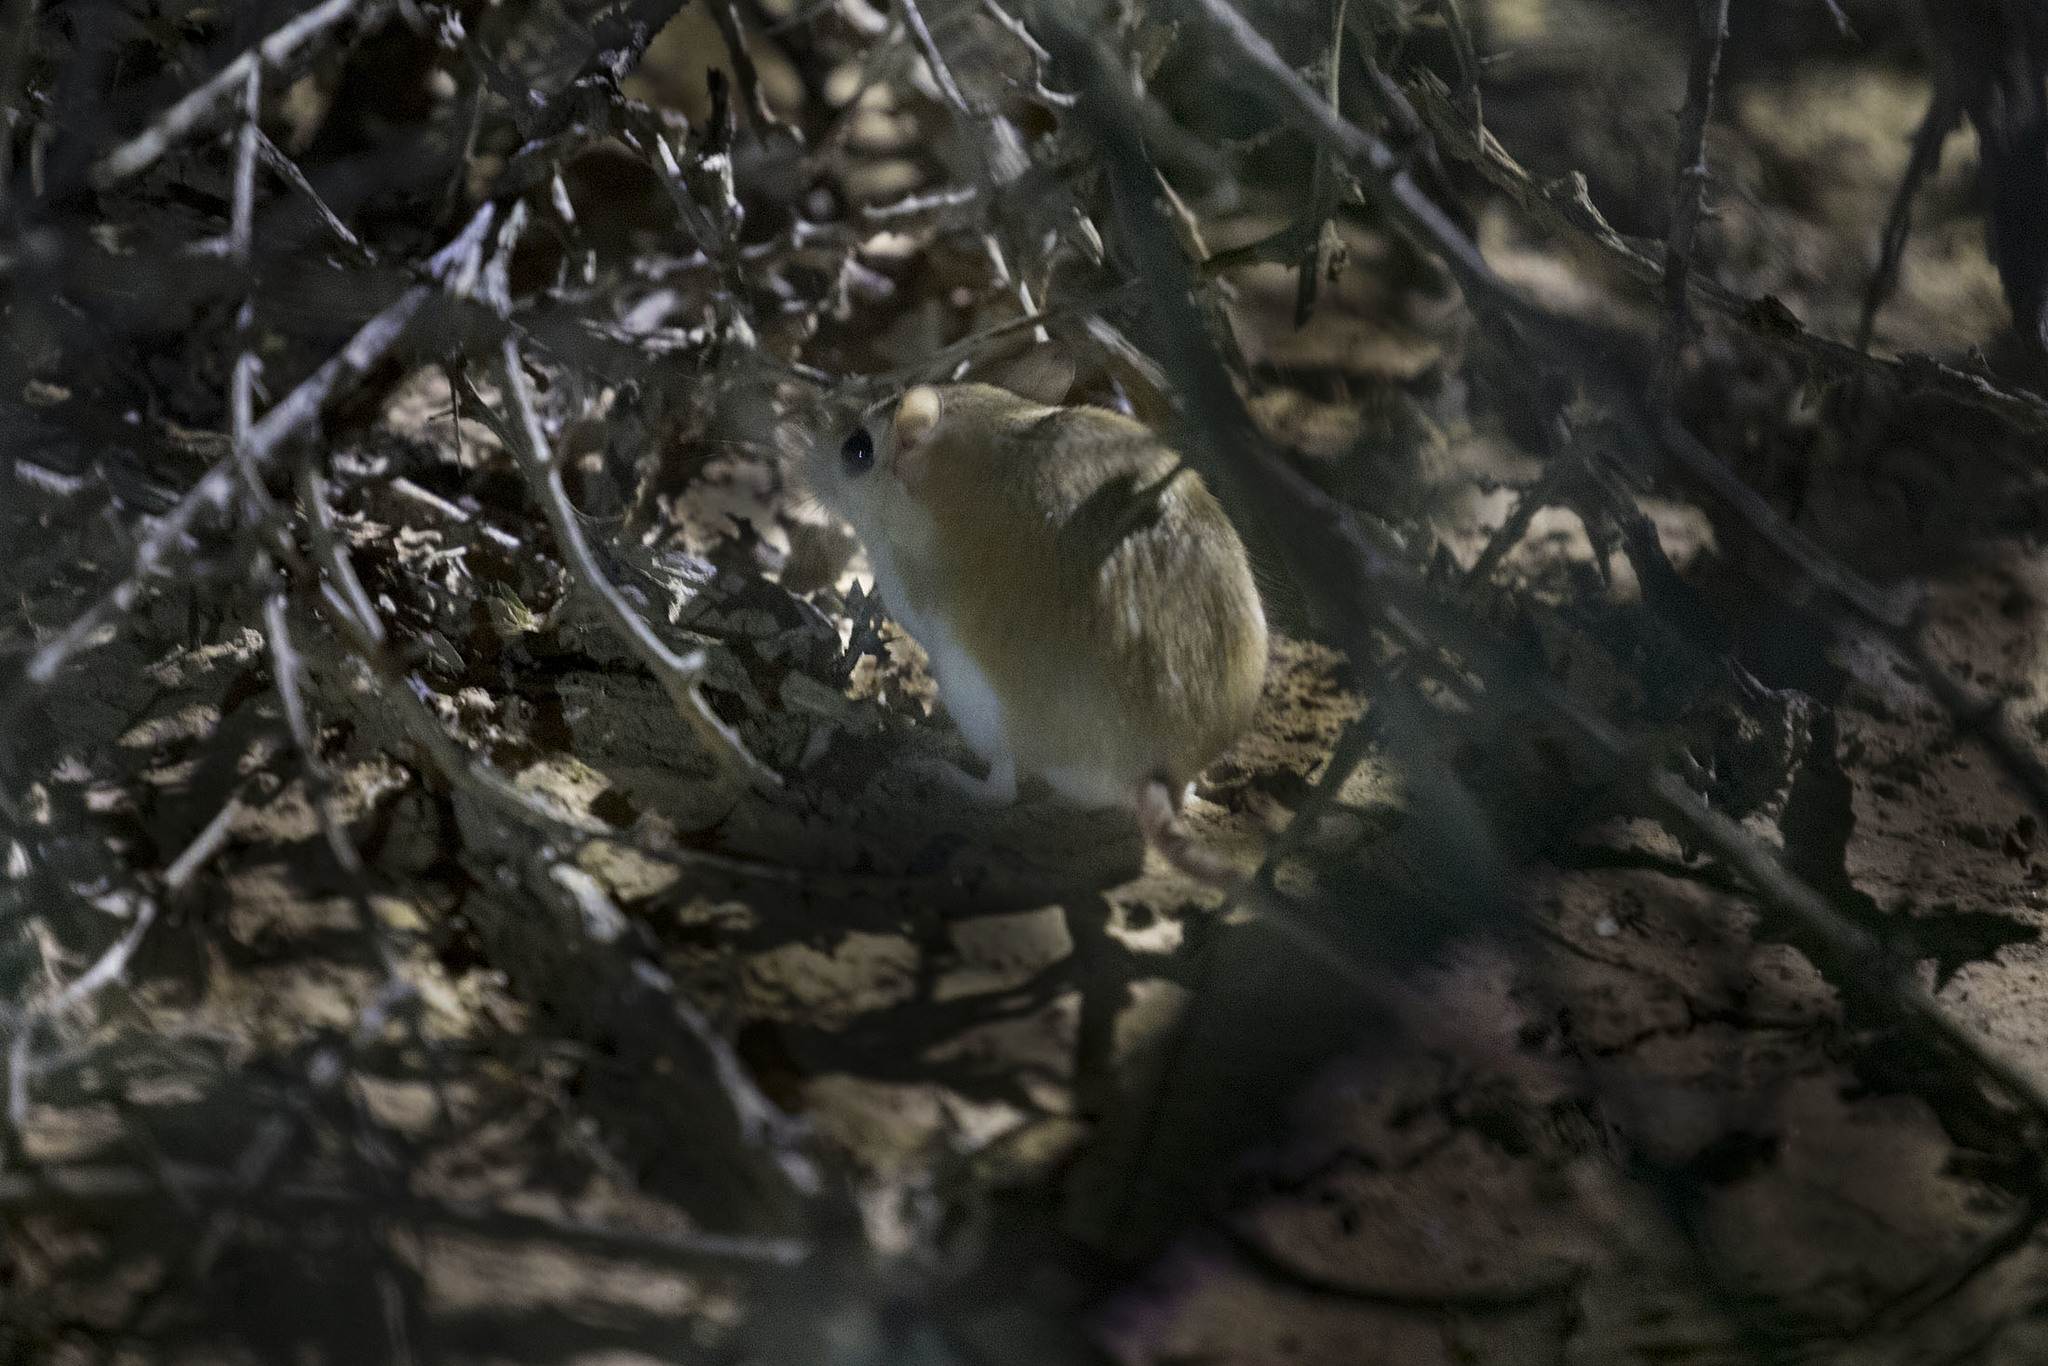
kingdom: Animalia
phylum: Chordata
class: Mammalia
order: Rodentia
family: Muridae
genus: Gerbillus
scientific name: Gerbillus nanus
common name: Baluchistan gerbil
